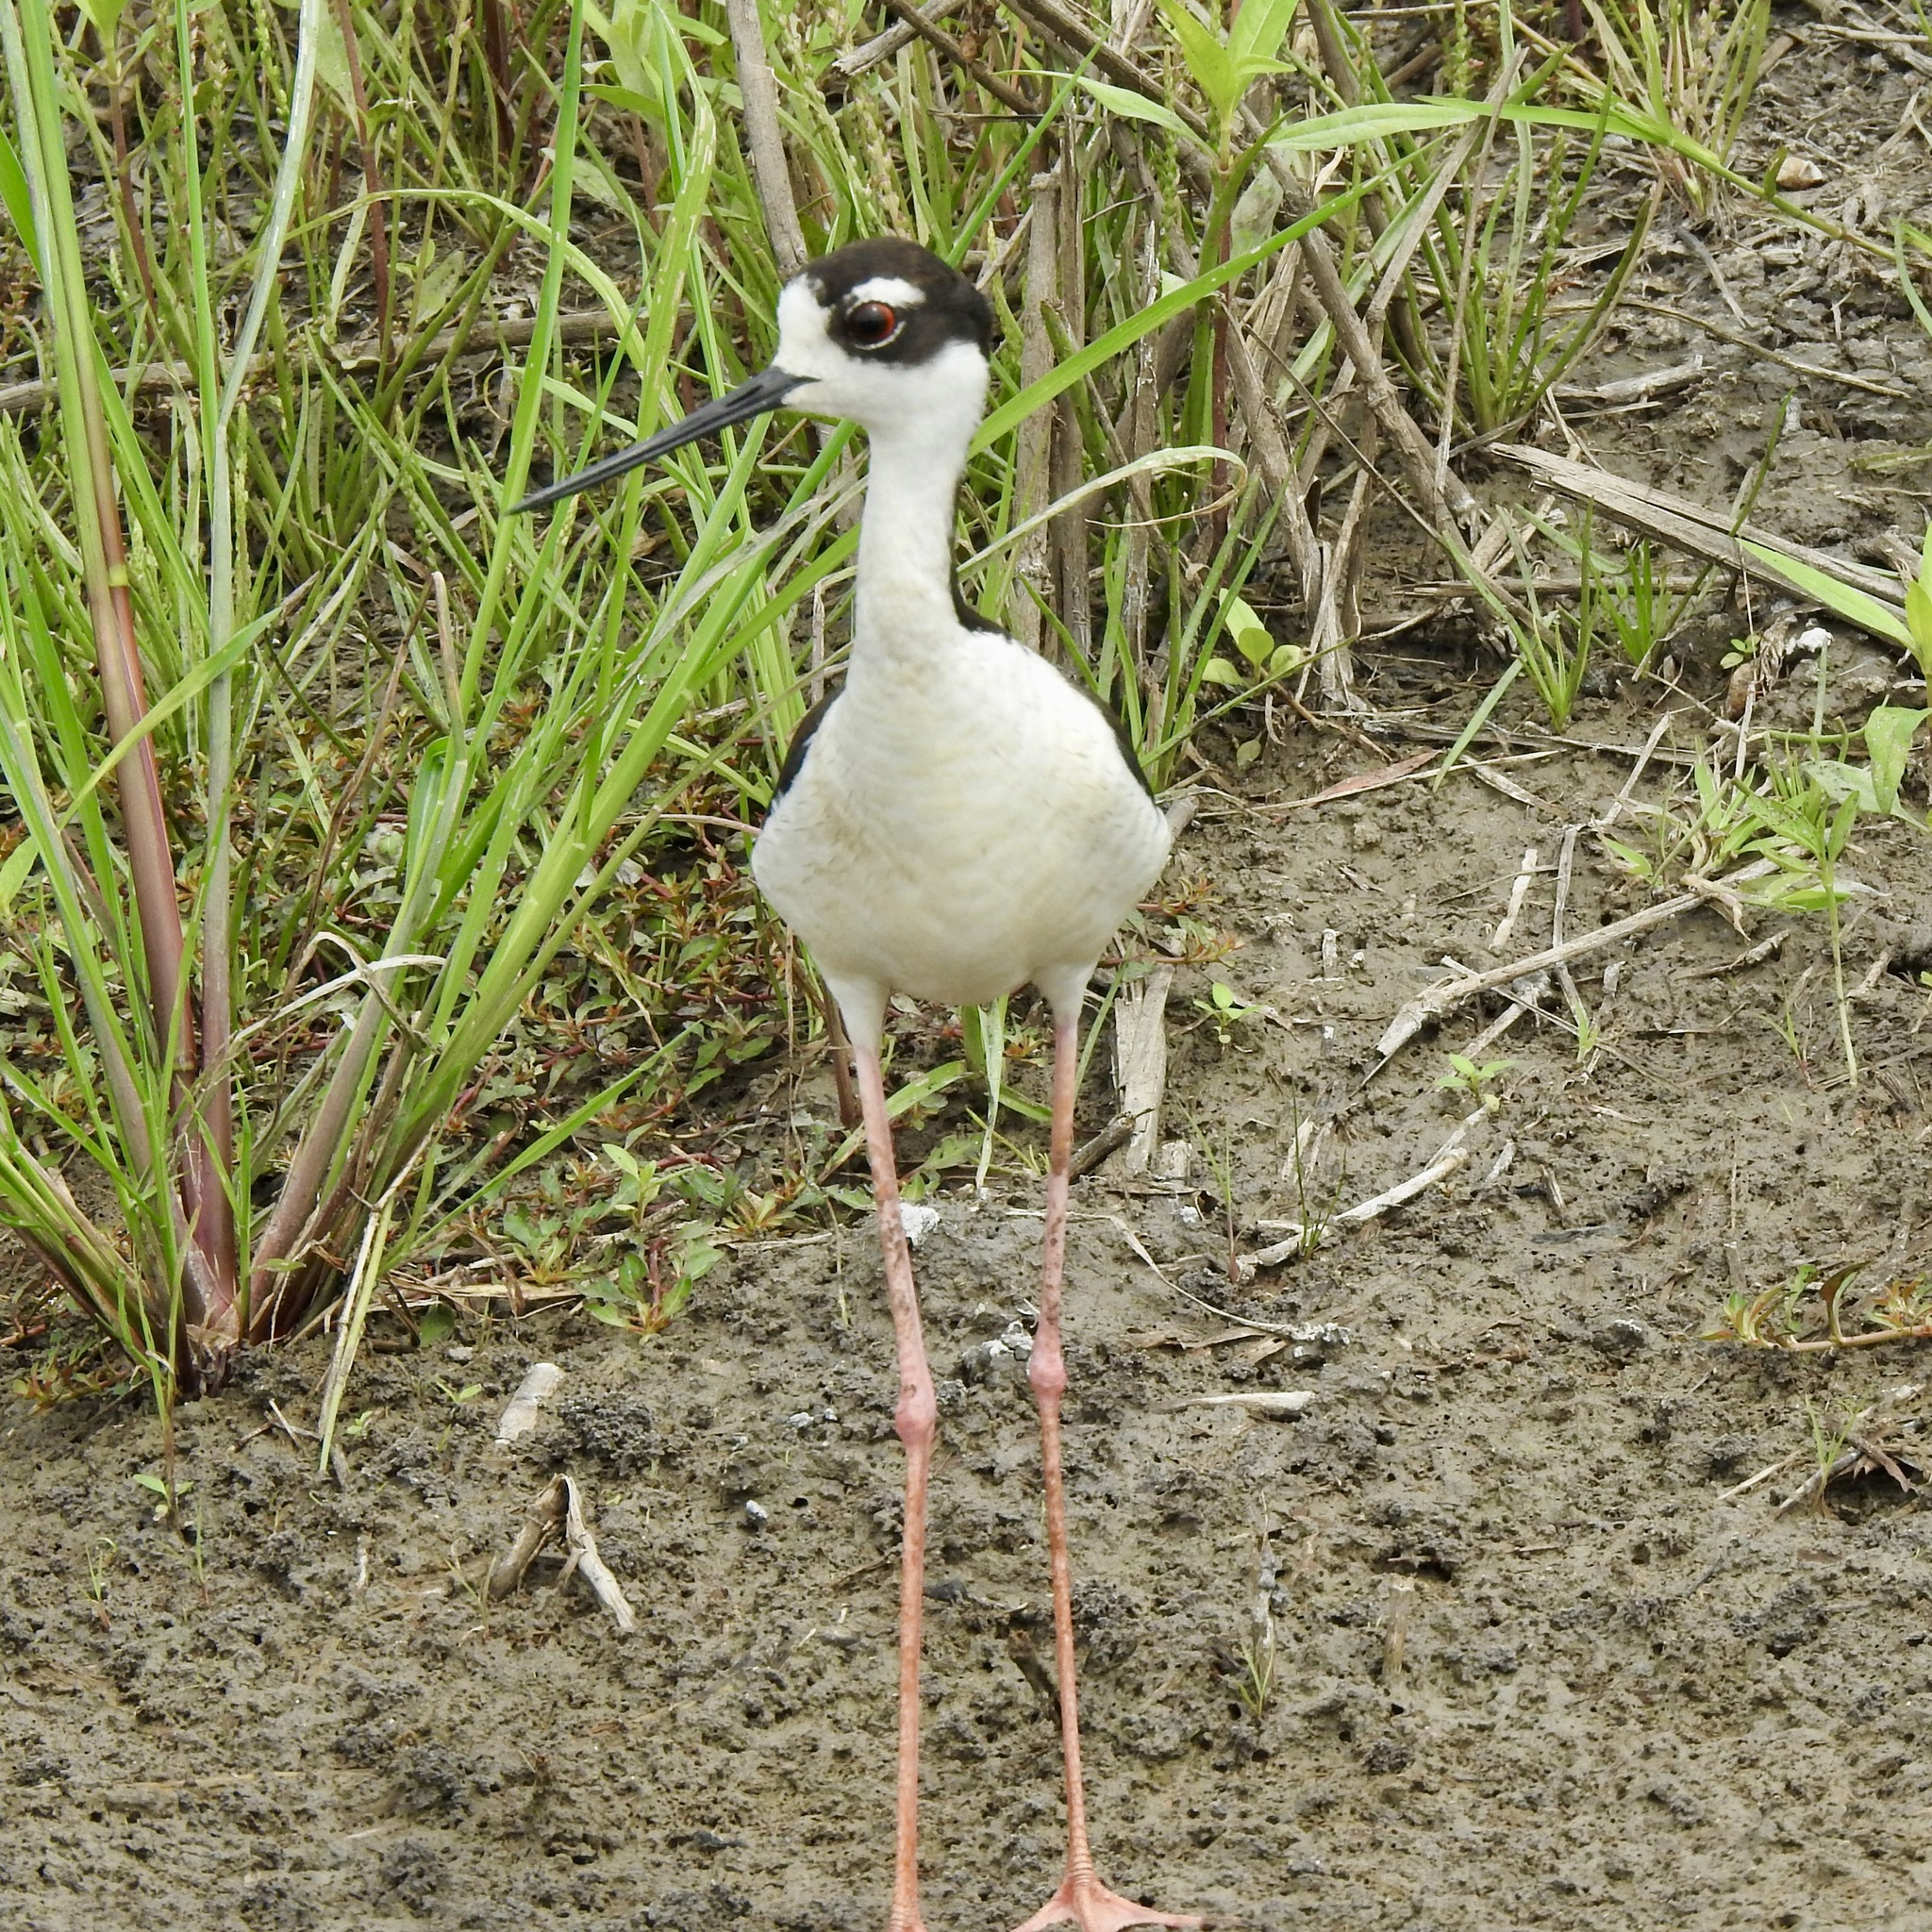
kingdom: Animalia
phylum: Chordata
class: Aves
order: Charadriiformes
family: Recurvirostridae
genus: Himantopus
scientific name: Himantopus mexicanus
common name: Black-necked stilt
